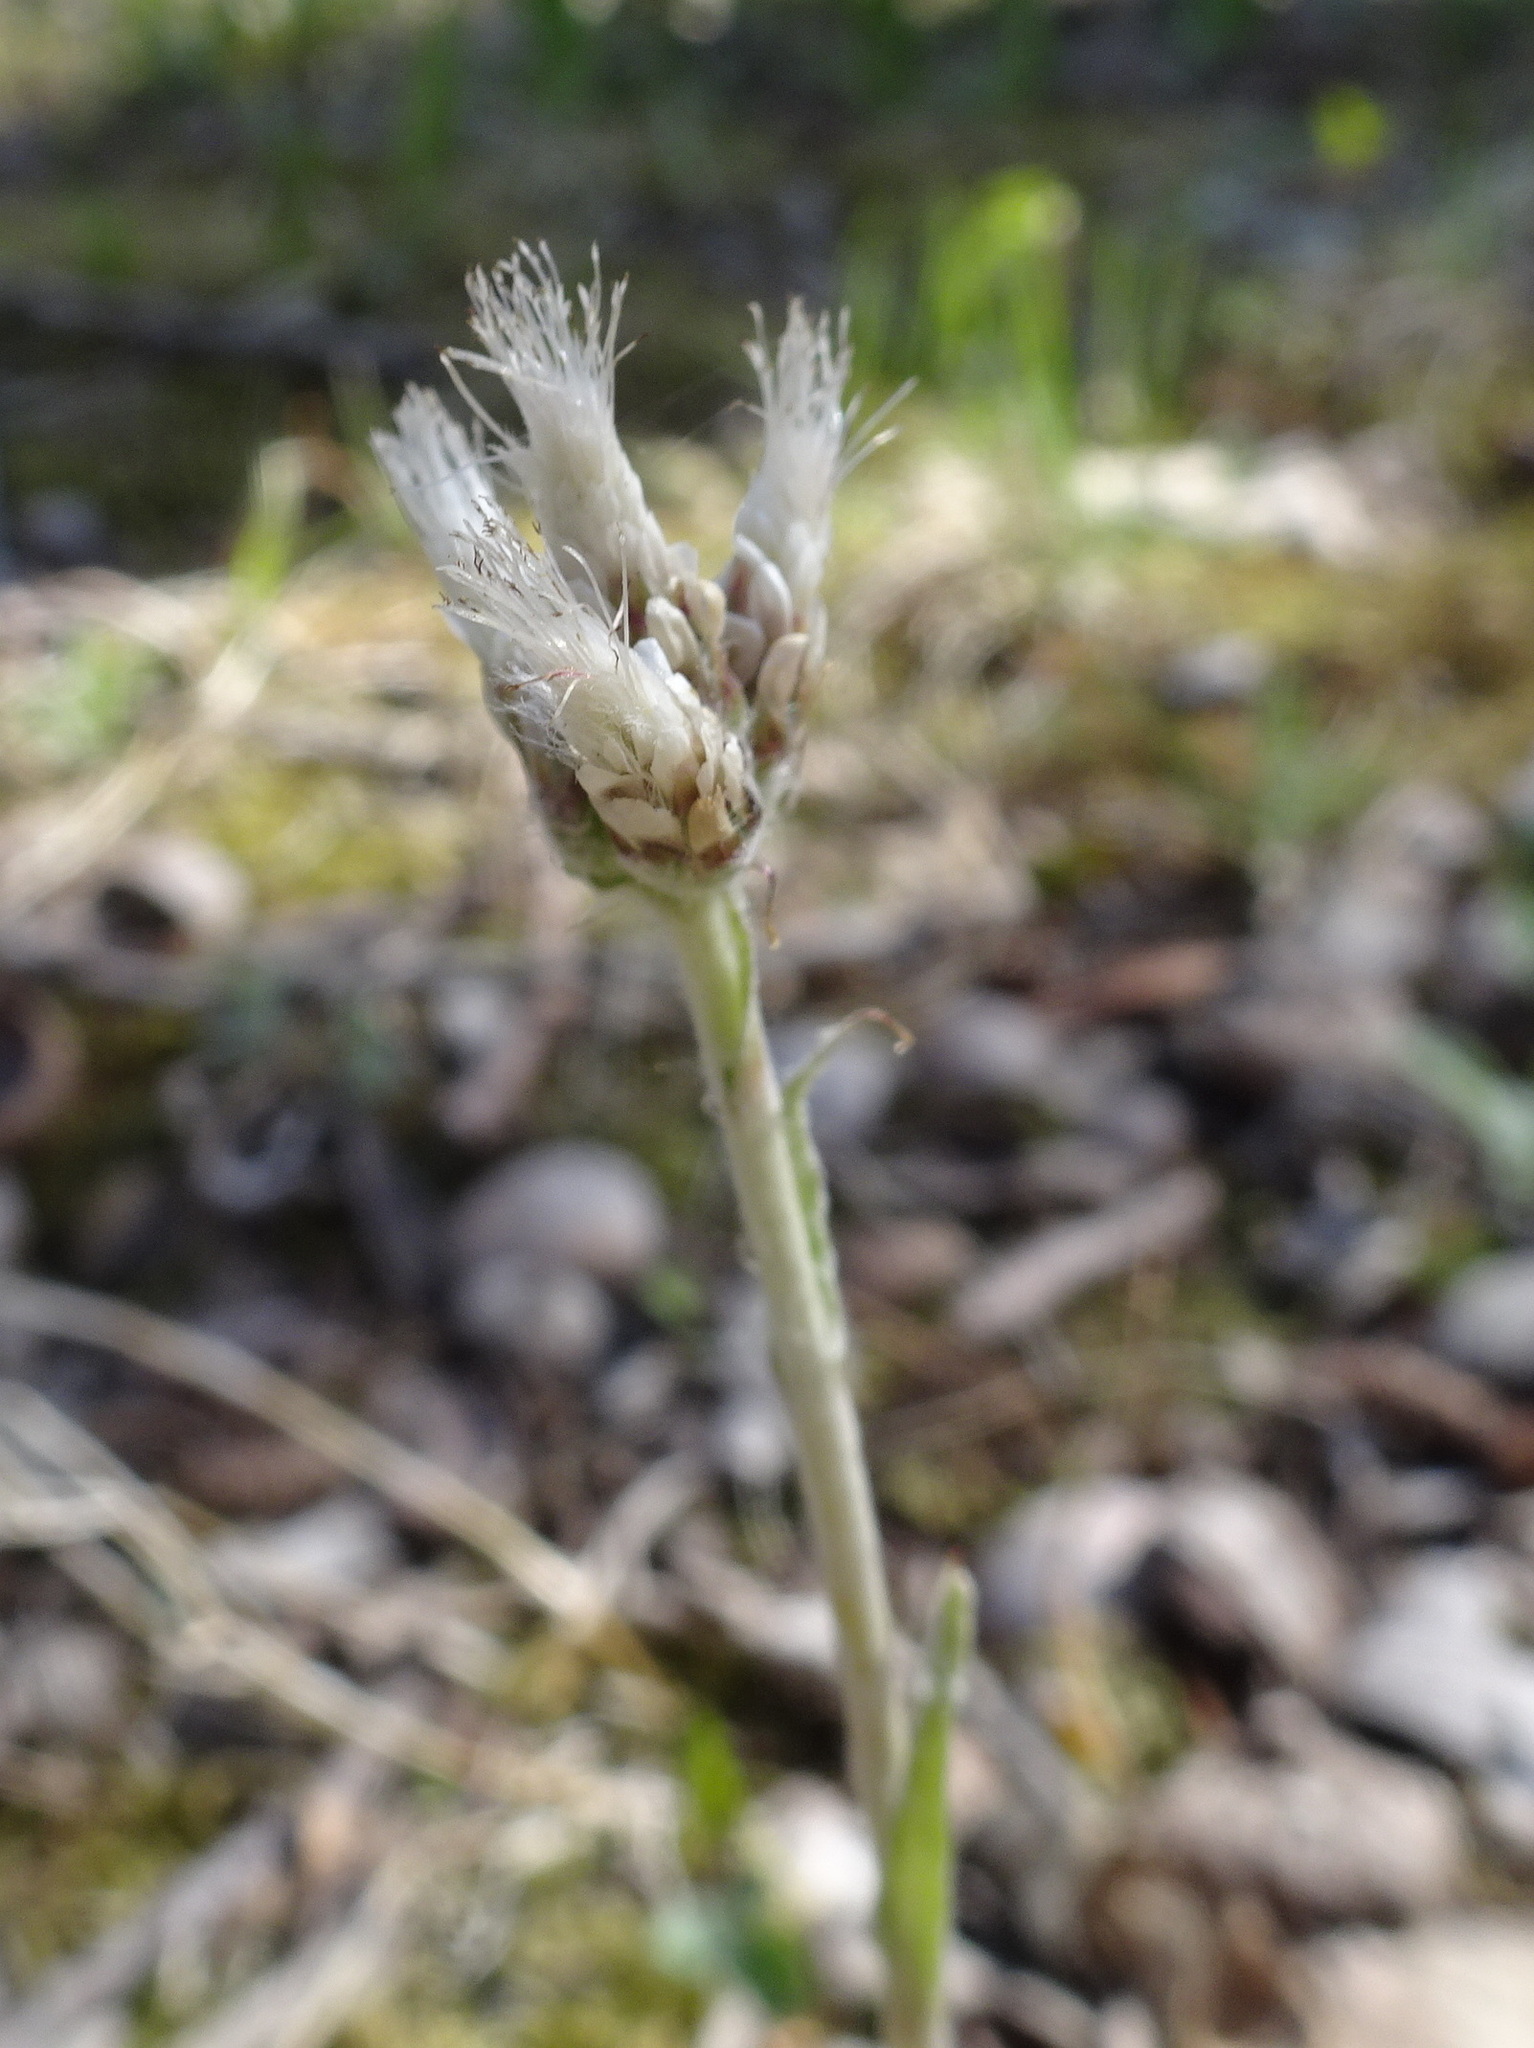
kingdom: Plantae
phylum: Tracheophyta
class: Magnoliopsida
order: Asterales
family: Asteraceae
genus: Antennaria
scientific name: Antennaria neglecta
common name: Field pussytoes
